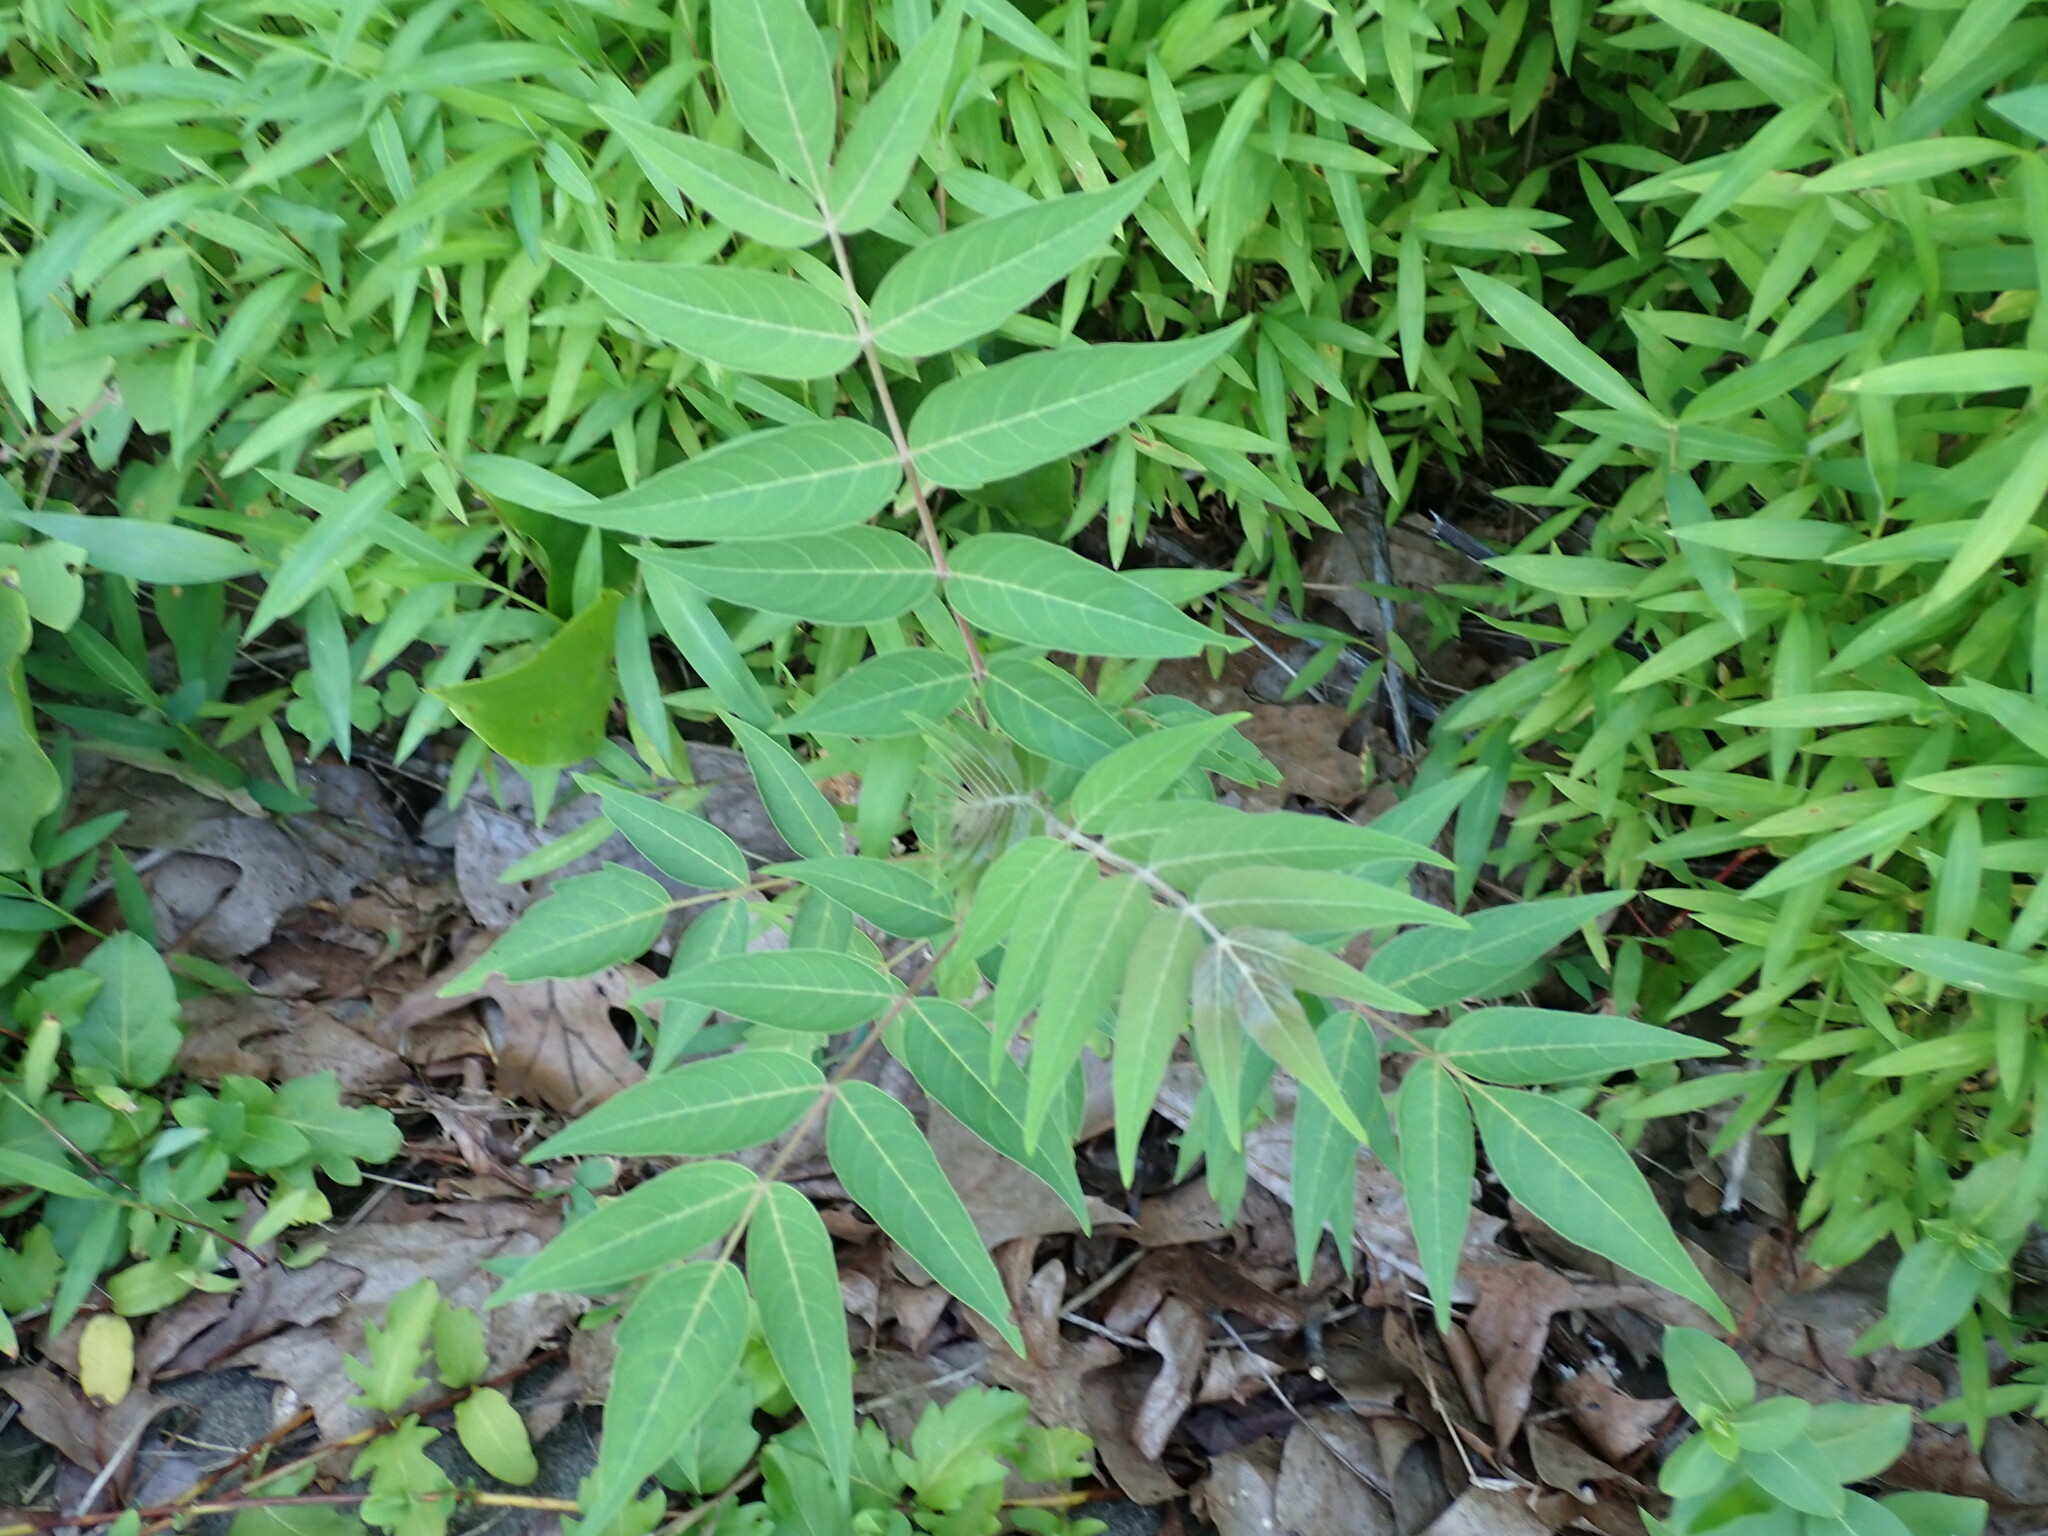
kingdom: Plantae
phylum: Tracheophyta
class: Magnoliopsida
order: Sapindales
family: Simaroubaceae
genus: Ailanthus
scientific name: Ailanthus altissima
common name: Tree-of-heaven
